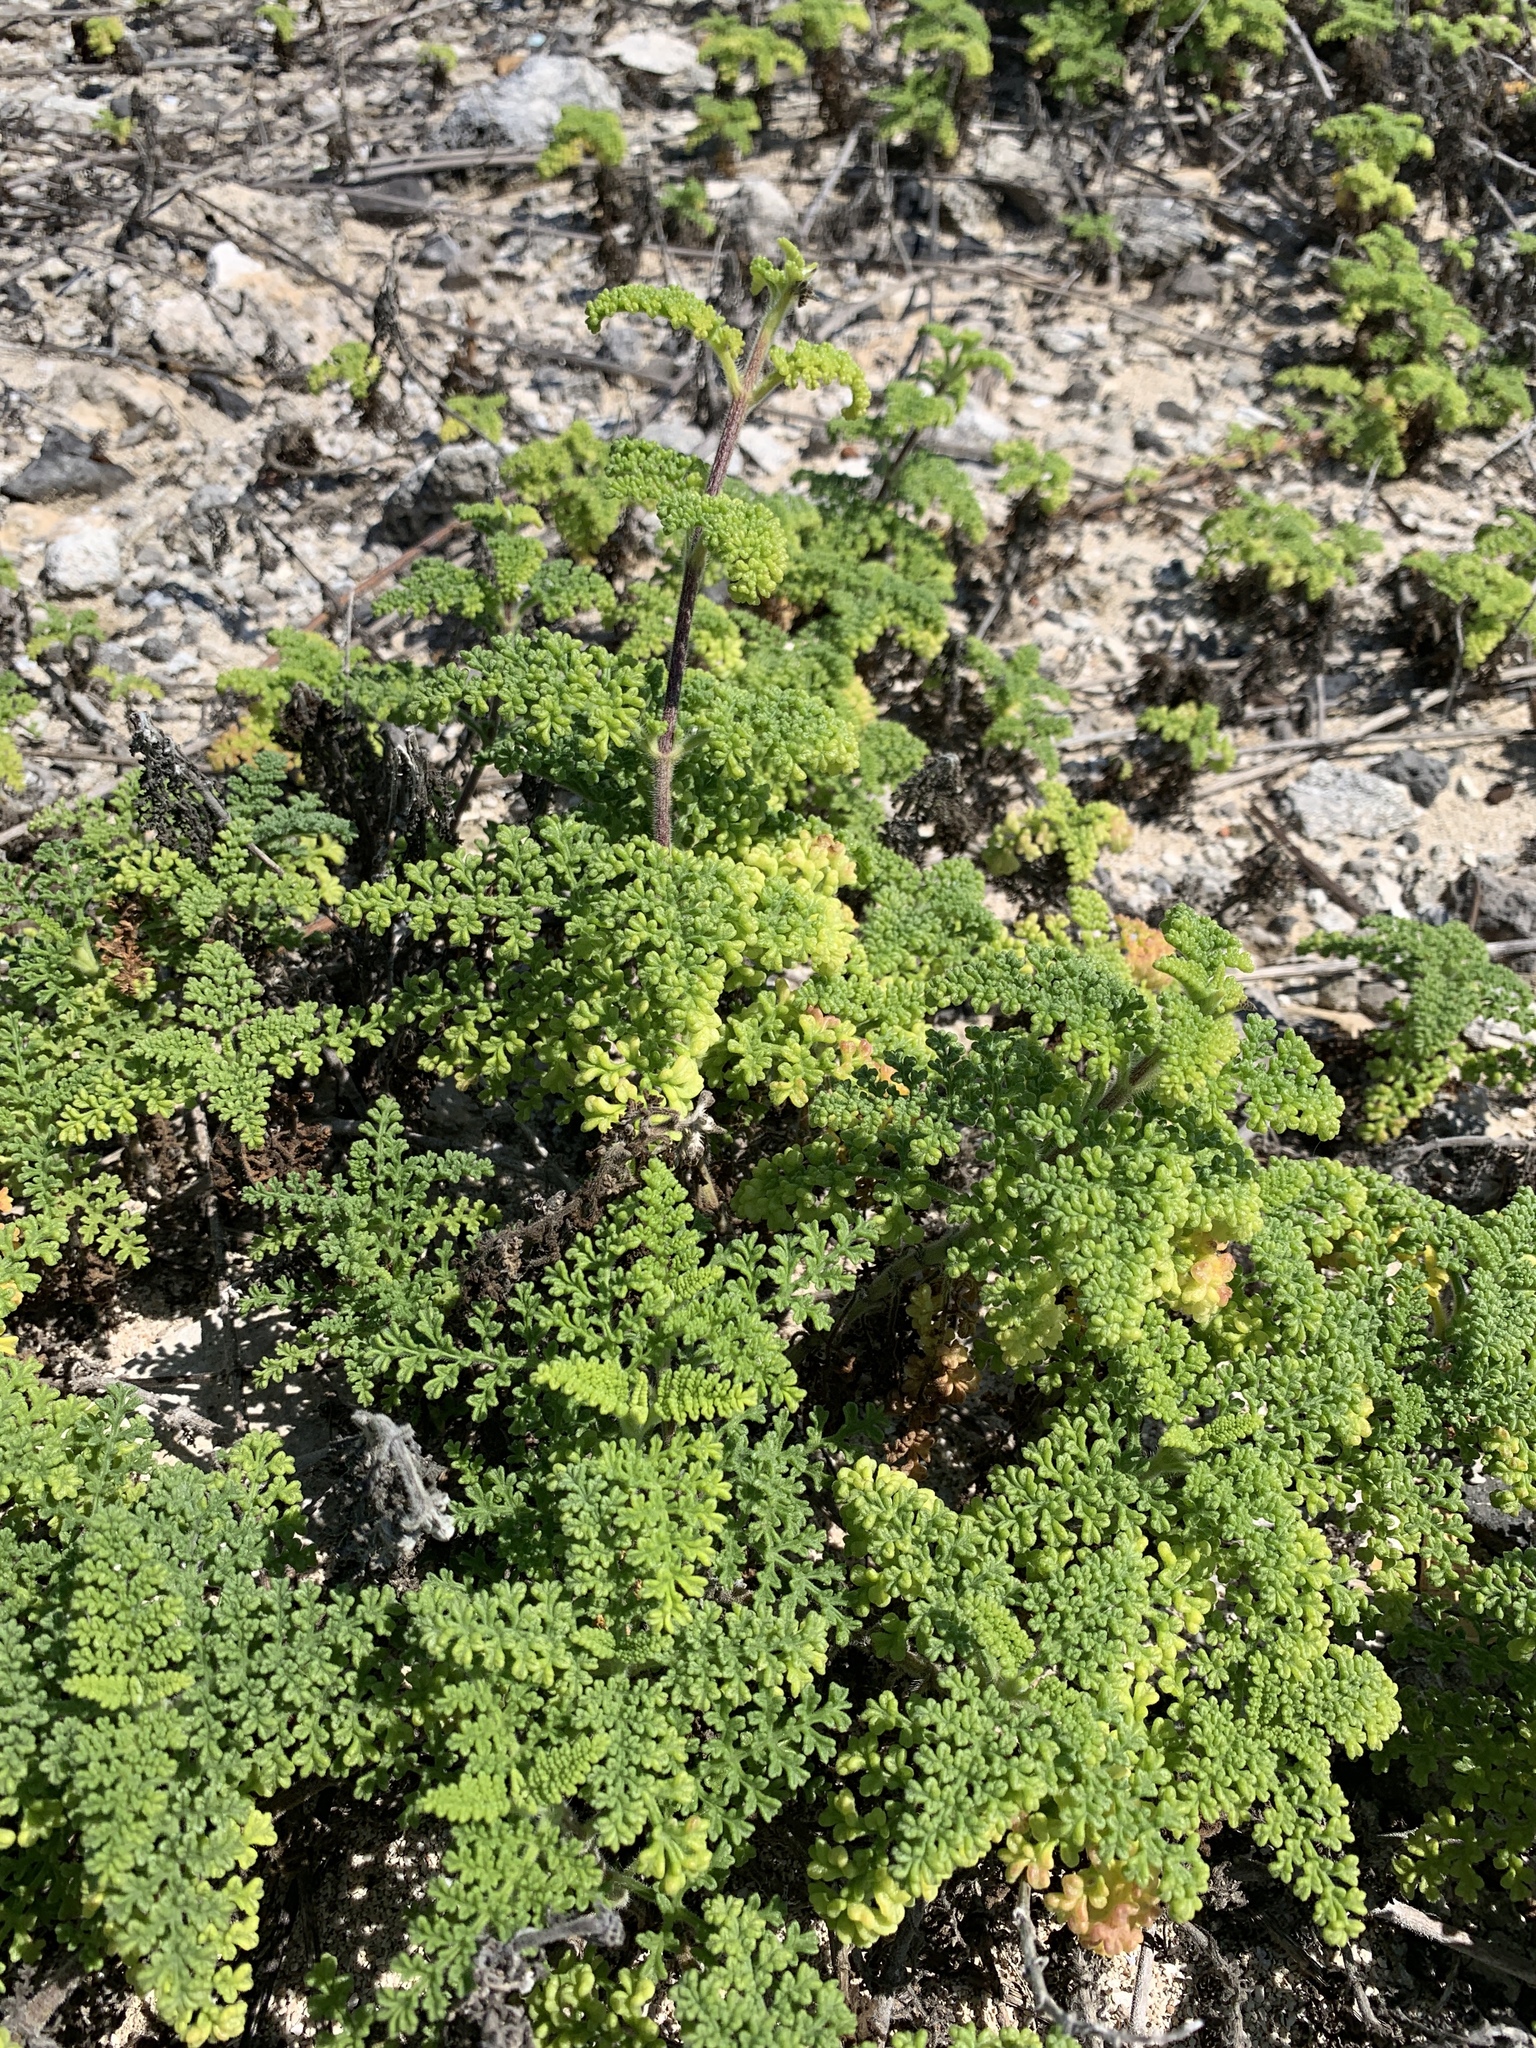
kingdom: Plantae
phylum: Tracheophyta
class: Magnoliopsida
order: Asterales
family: Asteraceae
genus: Ambrosia
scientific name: Ambrosia hispida
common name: Coastal ragweed
